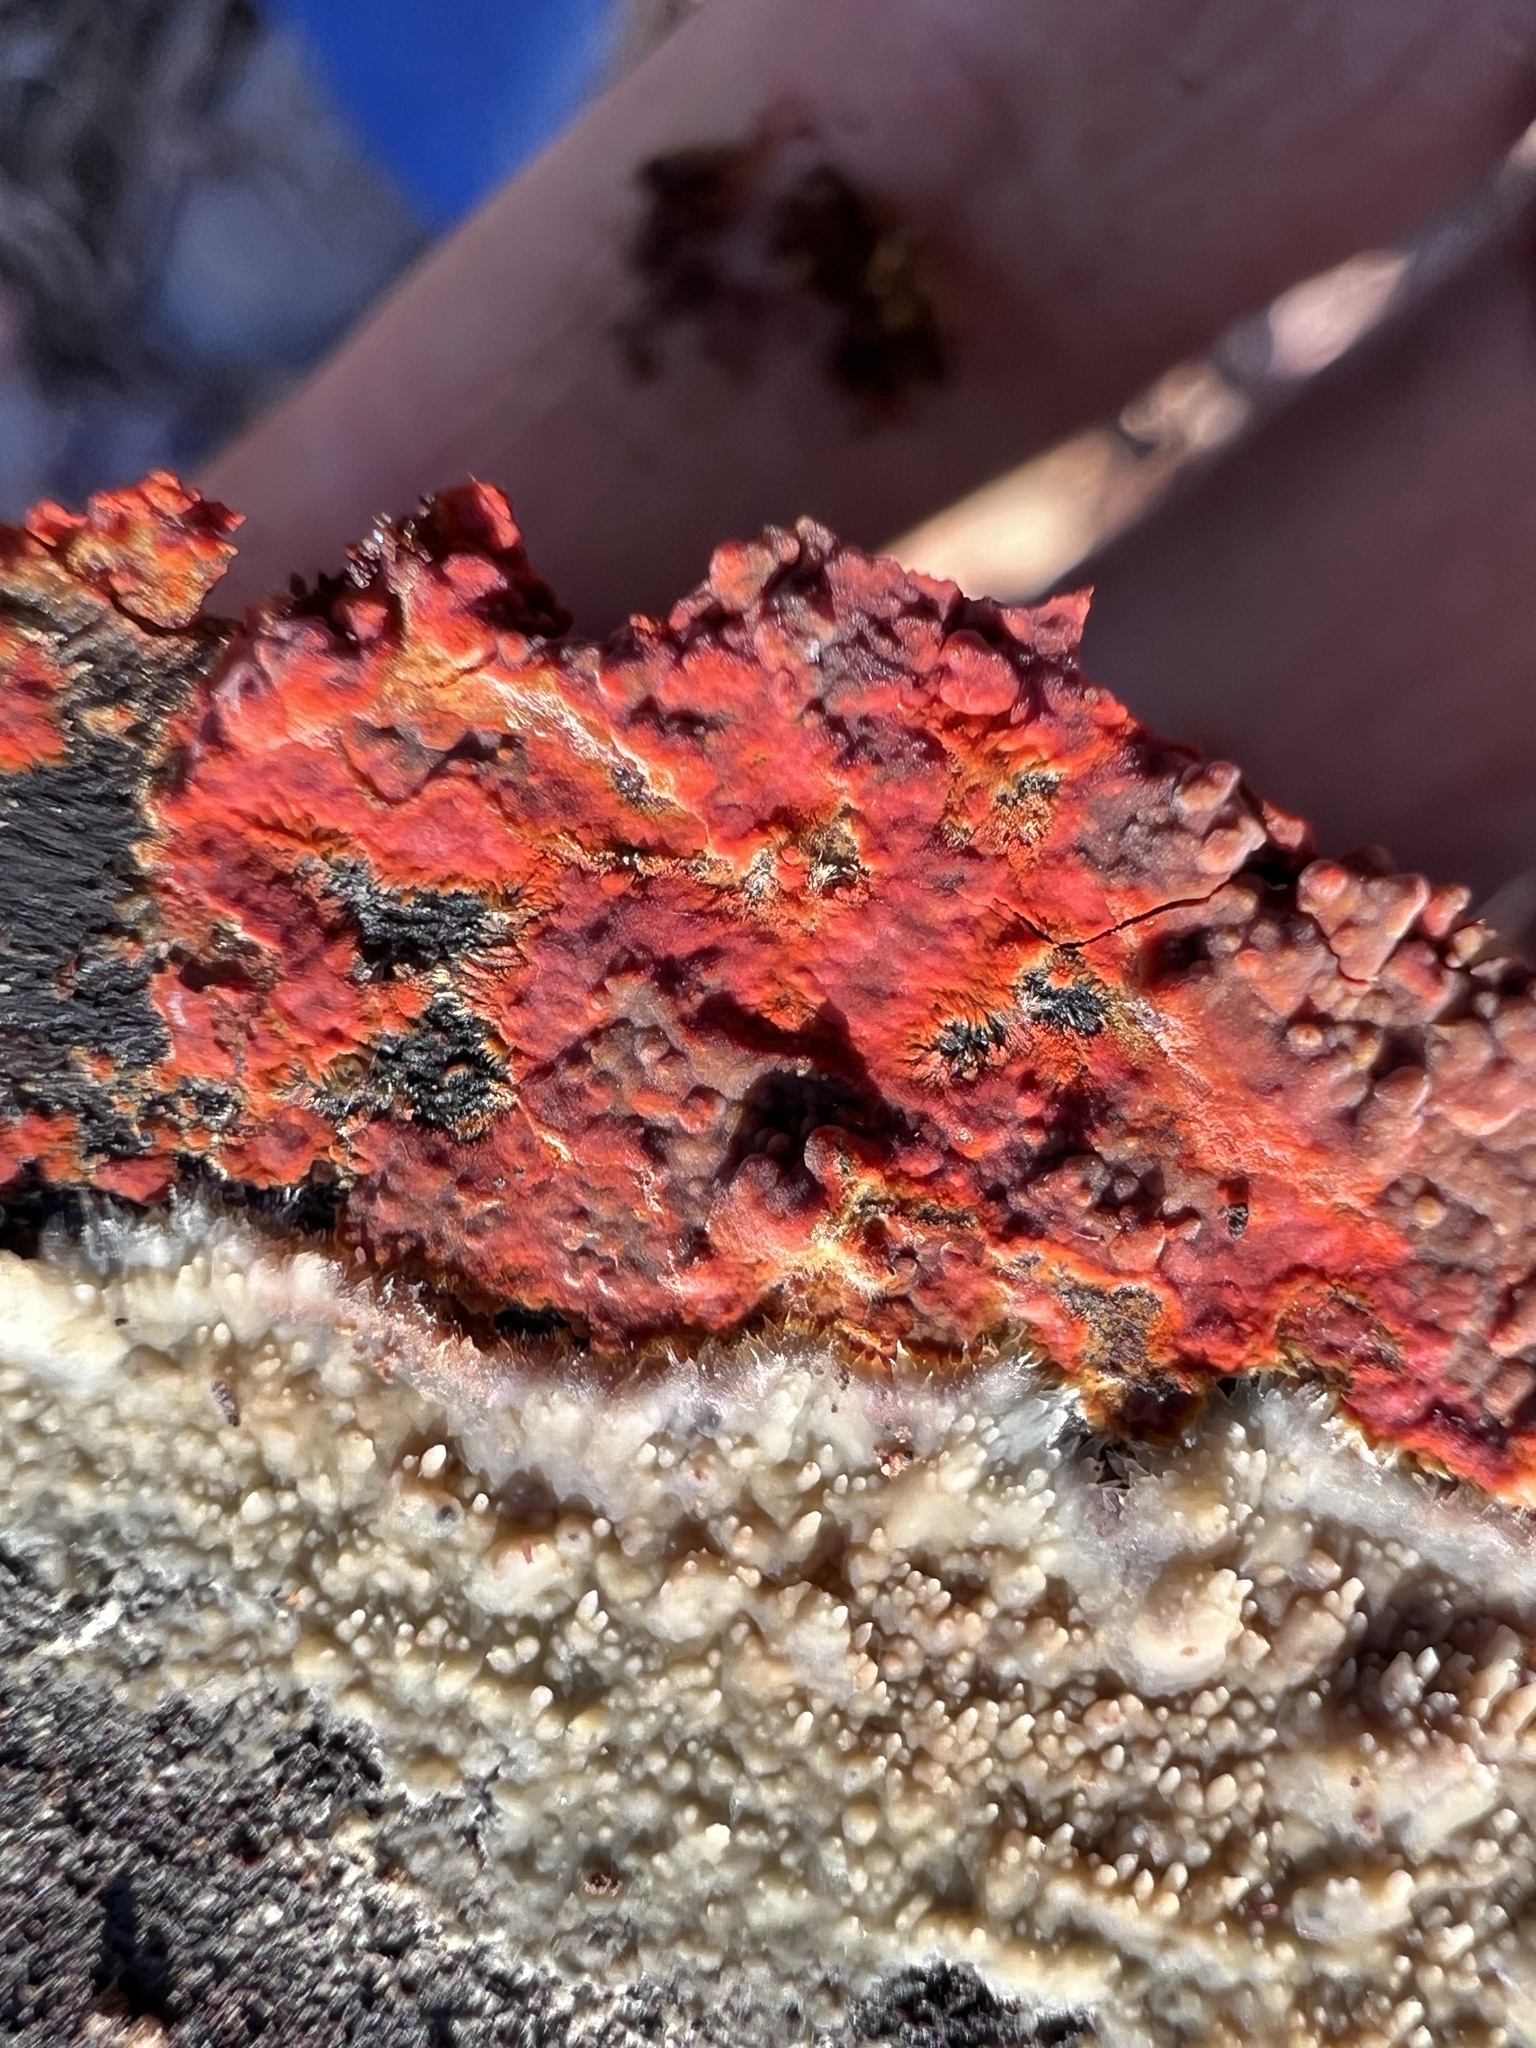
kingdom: Fungi
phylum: Basidiomycota
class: Agaricomycetes
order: Polyporales
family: Meruliaceae
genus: Phlebia
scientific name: Phlebia coccineofulva
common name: Scarlet waxcrust
